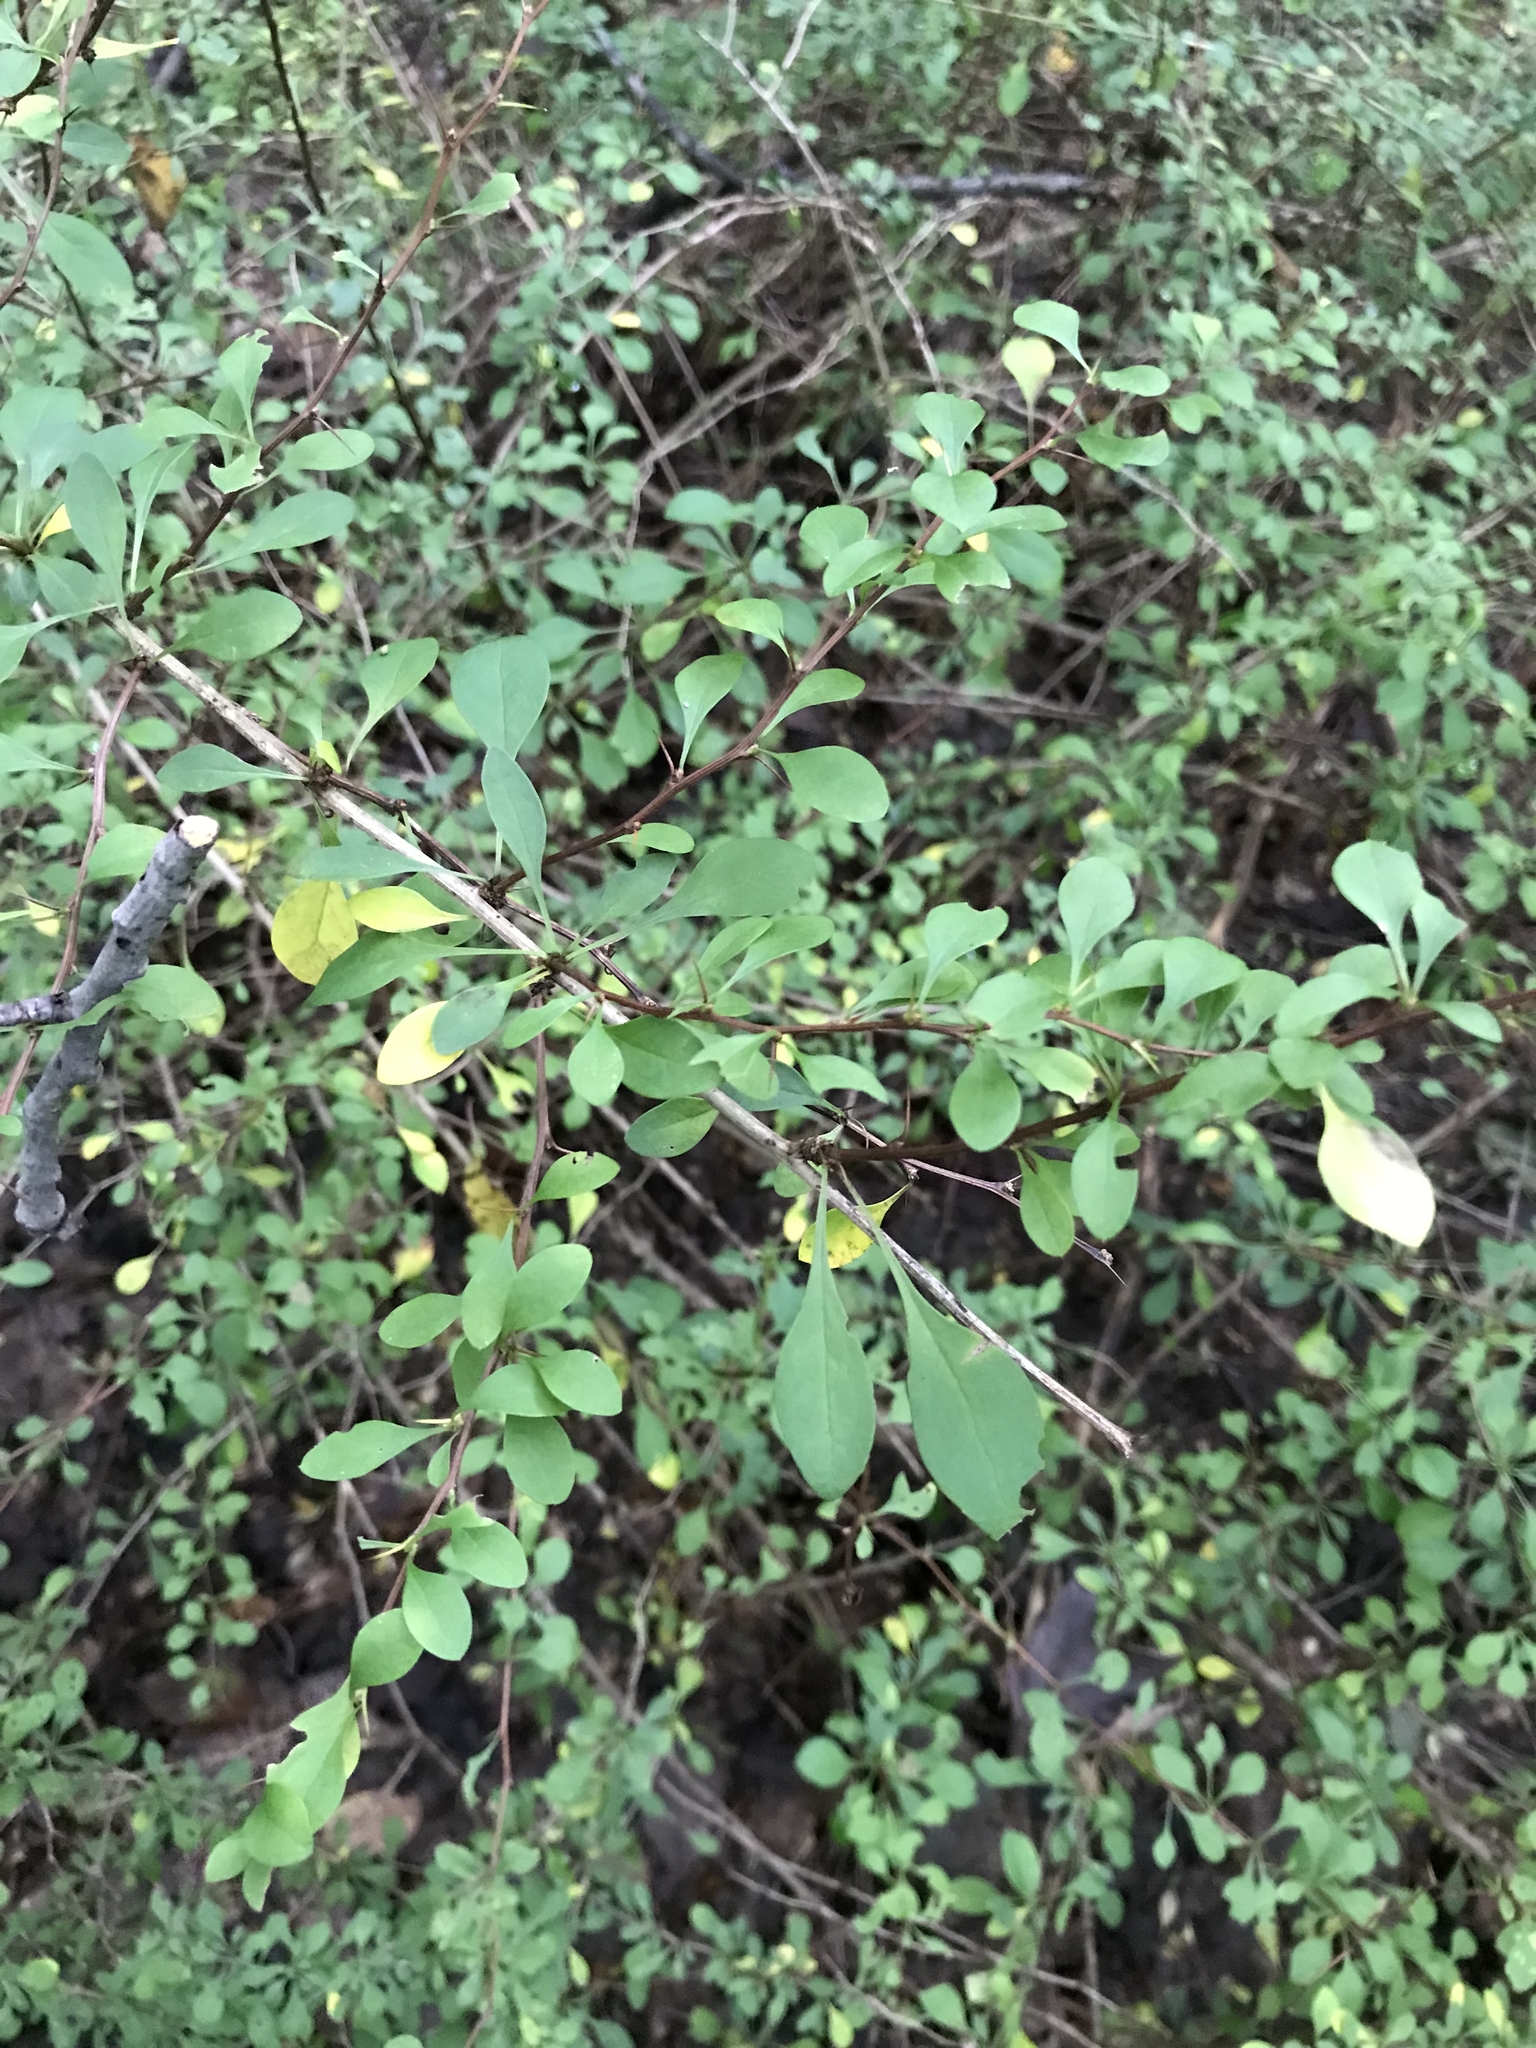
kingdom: Plantae
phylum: Tracheophyta
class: Magnoliopsida
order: Ranunculales
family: Berberidaceae
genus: Berberis
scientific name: Berberis thunbergii
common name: Japanese barberry
